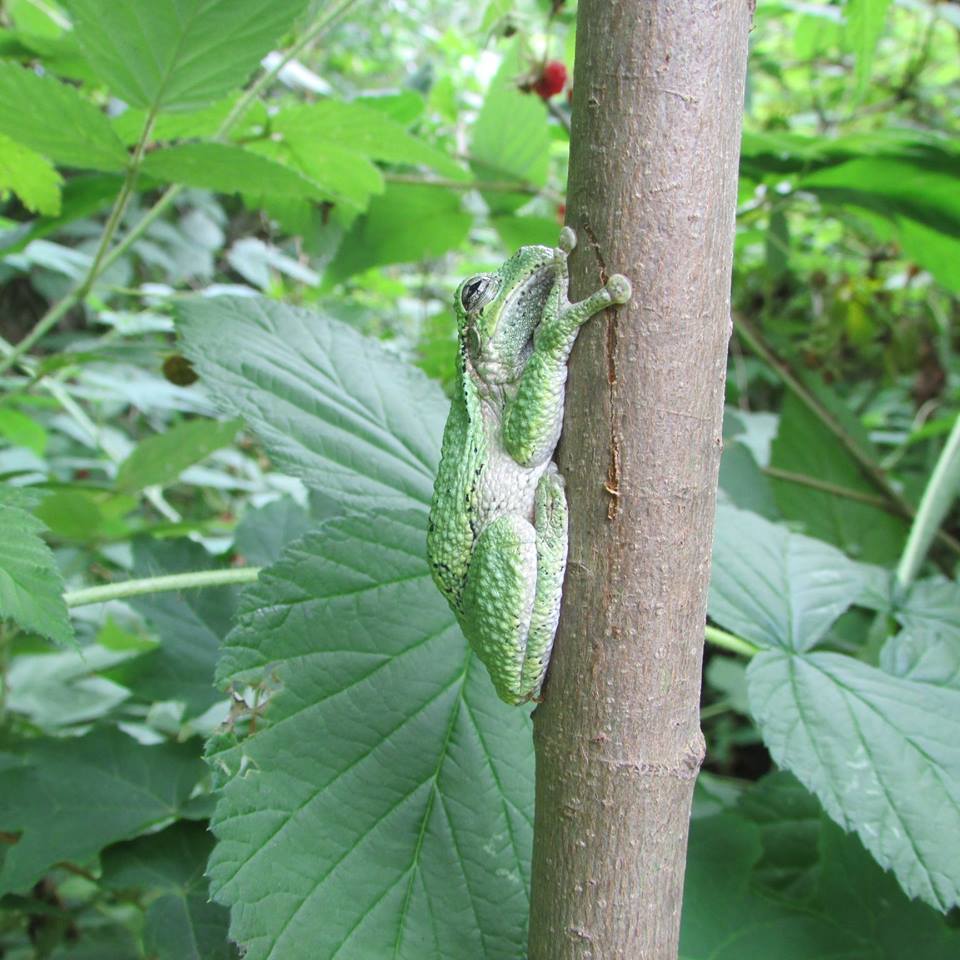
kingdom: Animalia
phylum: Chordata
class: Amphibia
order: Anura
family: Hylidae
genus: Dryophytes
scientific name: Dryophytes versicolor
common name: Gray treefrog
